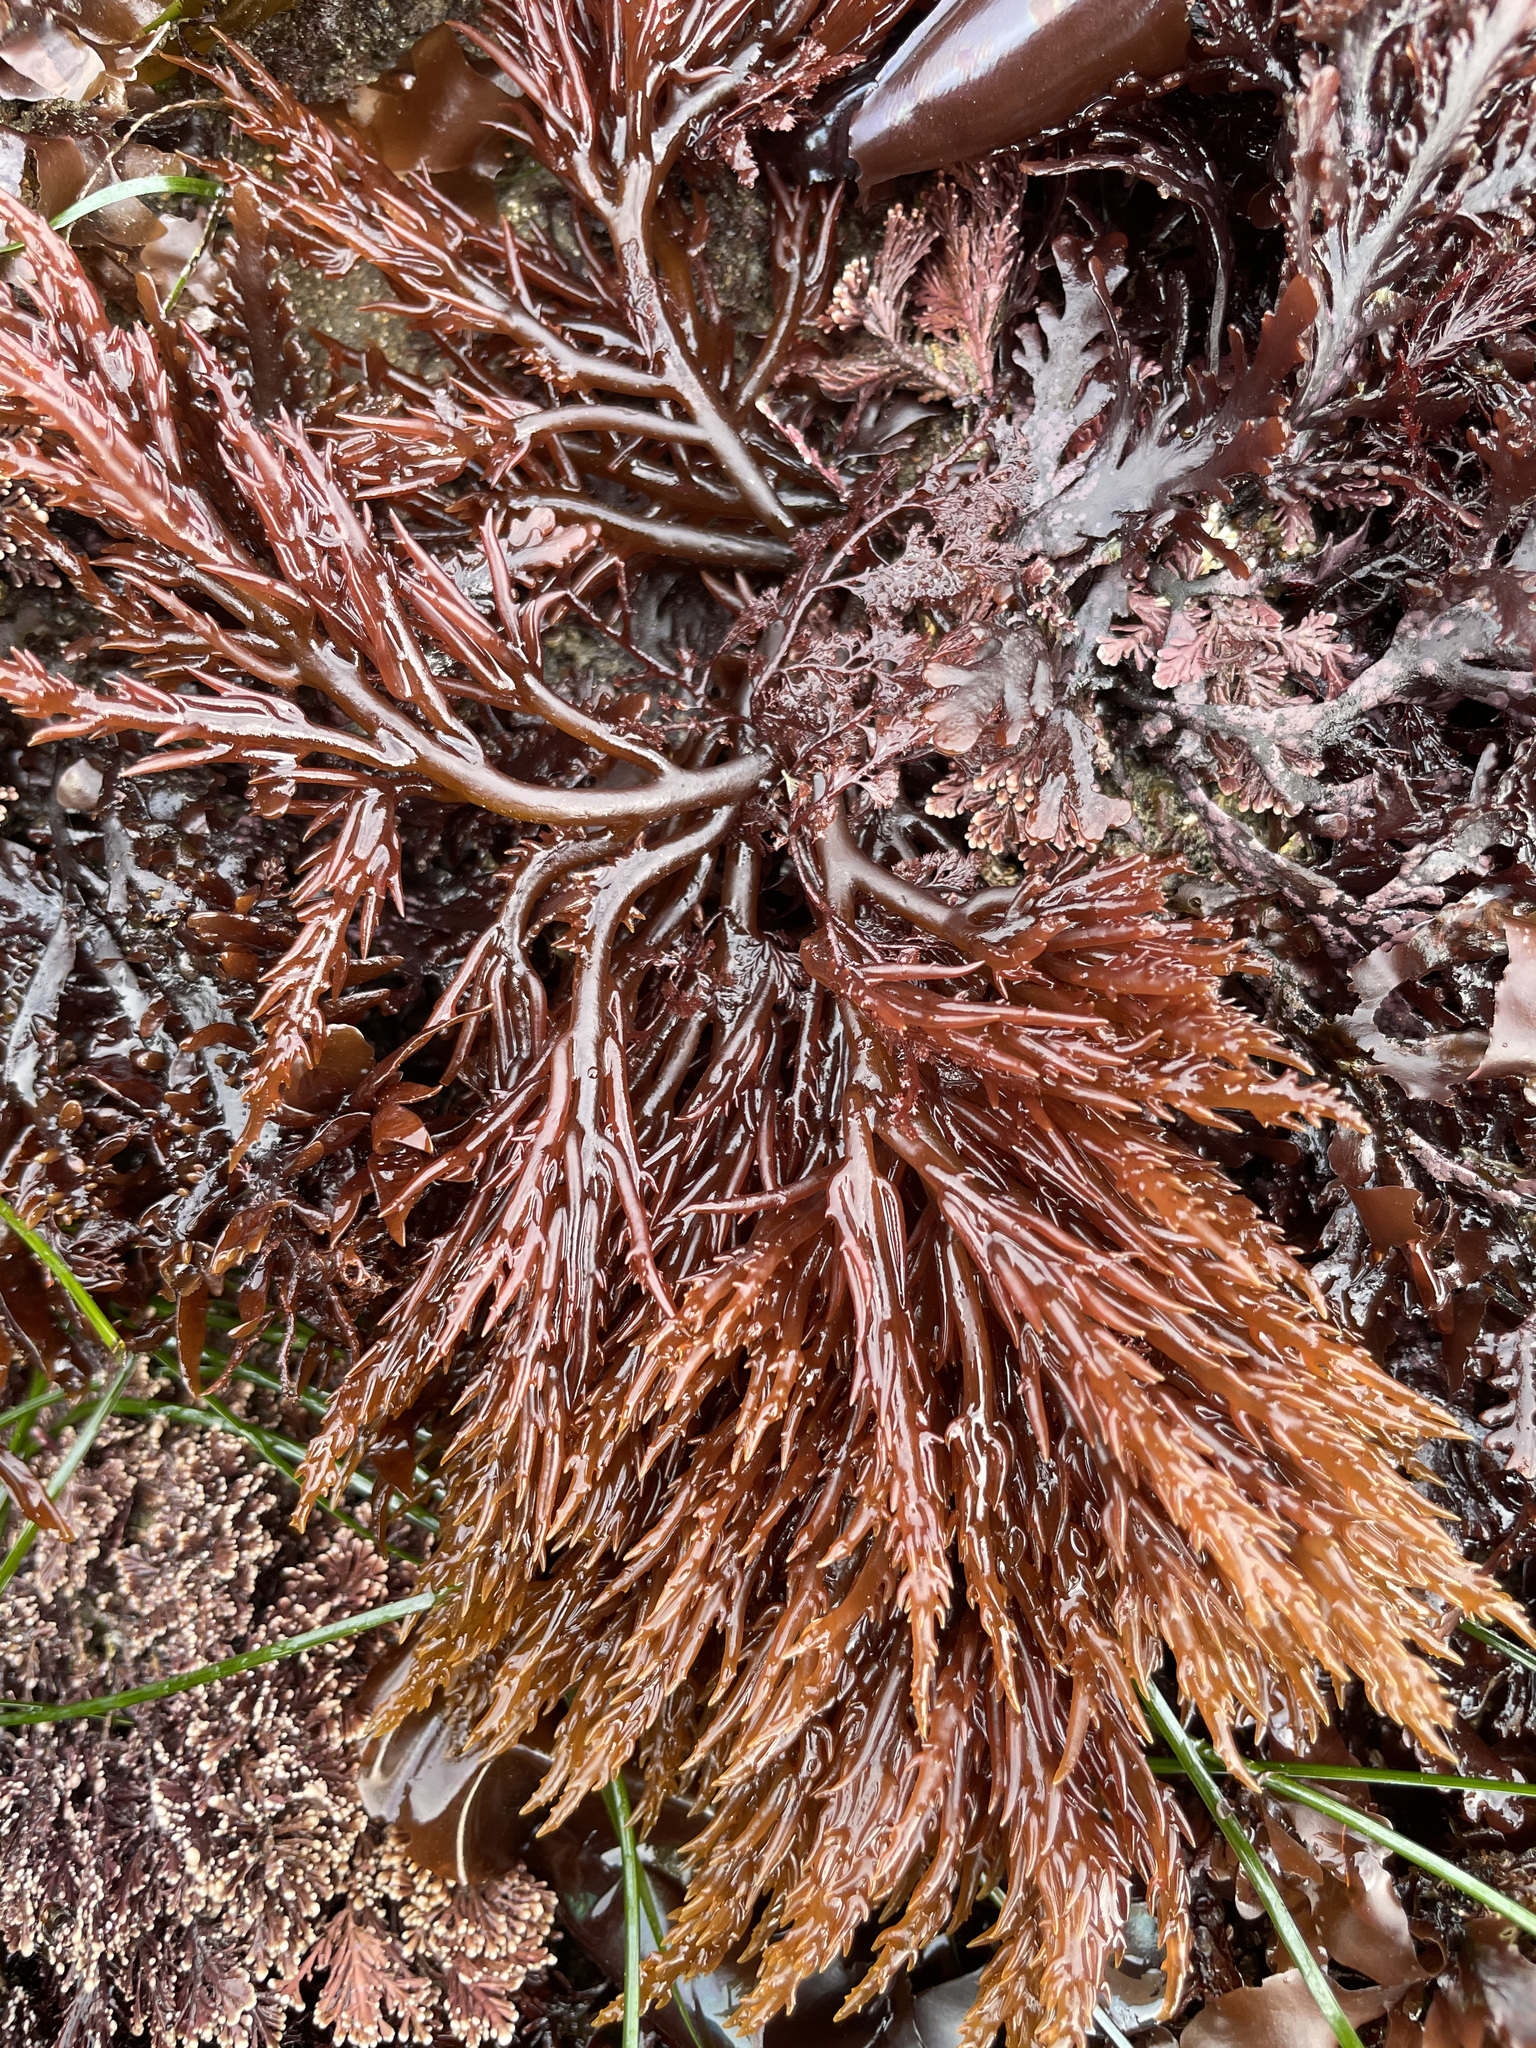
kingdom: Plantae
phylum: Rhodophyta
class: Florideophyceae
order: Gigartinales
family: Solieriaceae
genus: Sarcodiotheca
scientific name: Sarcodiotheca gaudichaudii
